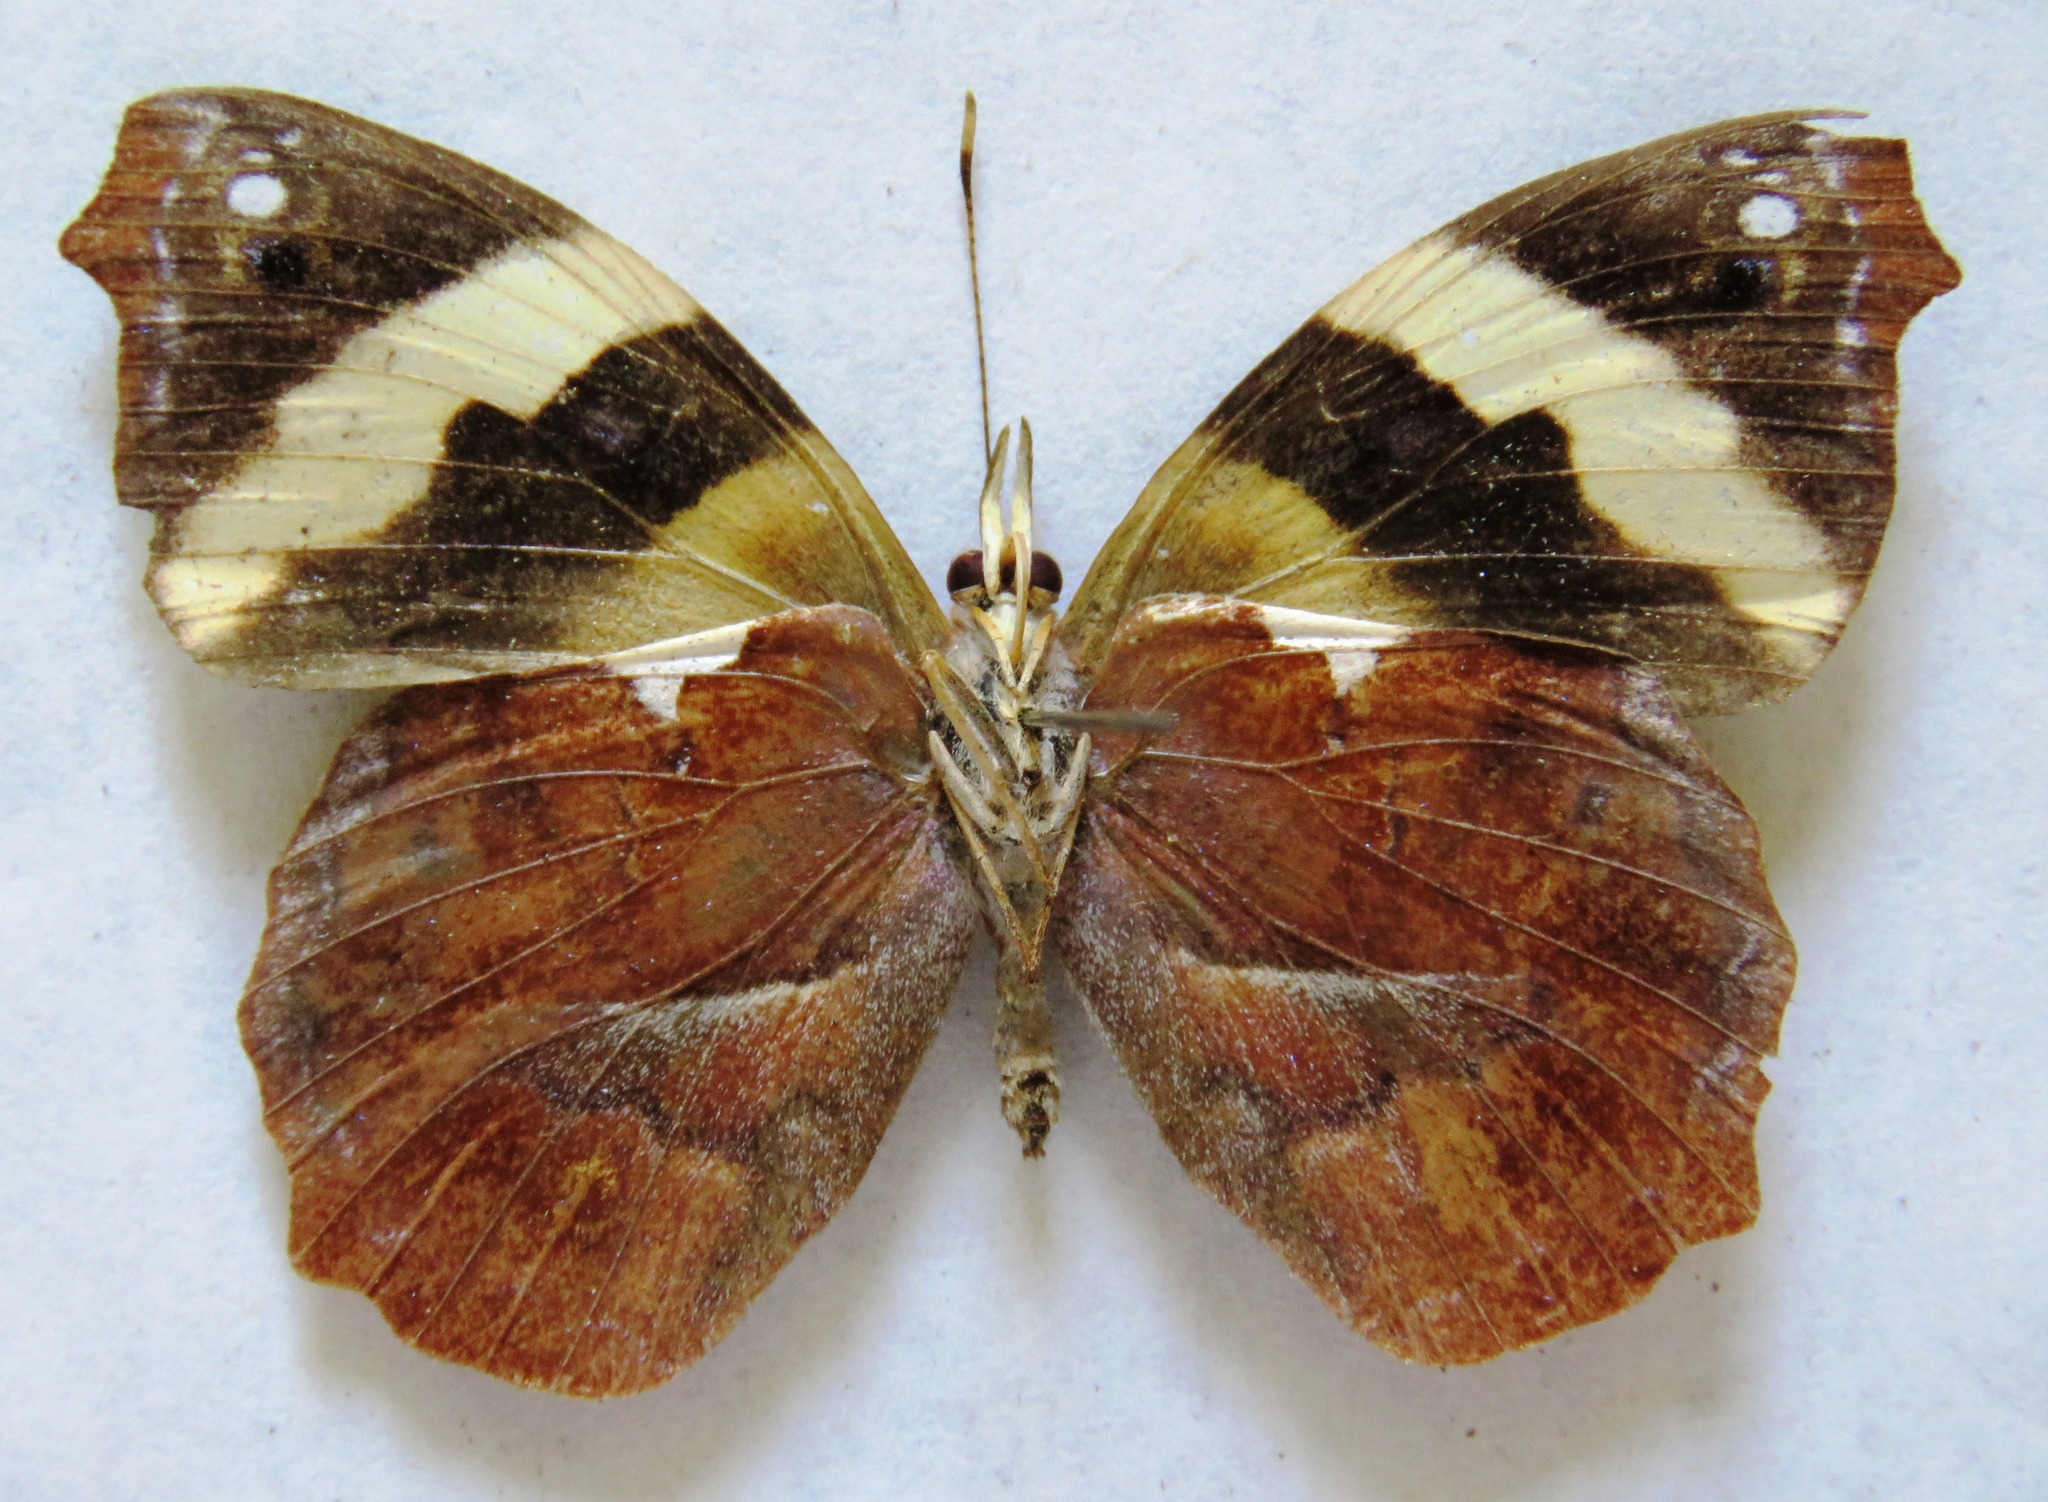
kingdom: Animalia
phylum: Arthropoda
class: Insecta
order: Lepidoptera
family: Nymphalidae
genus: Epiphile
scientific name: Epiphile adrasta
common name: Common banner
